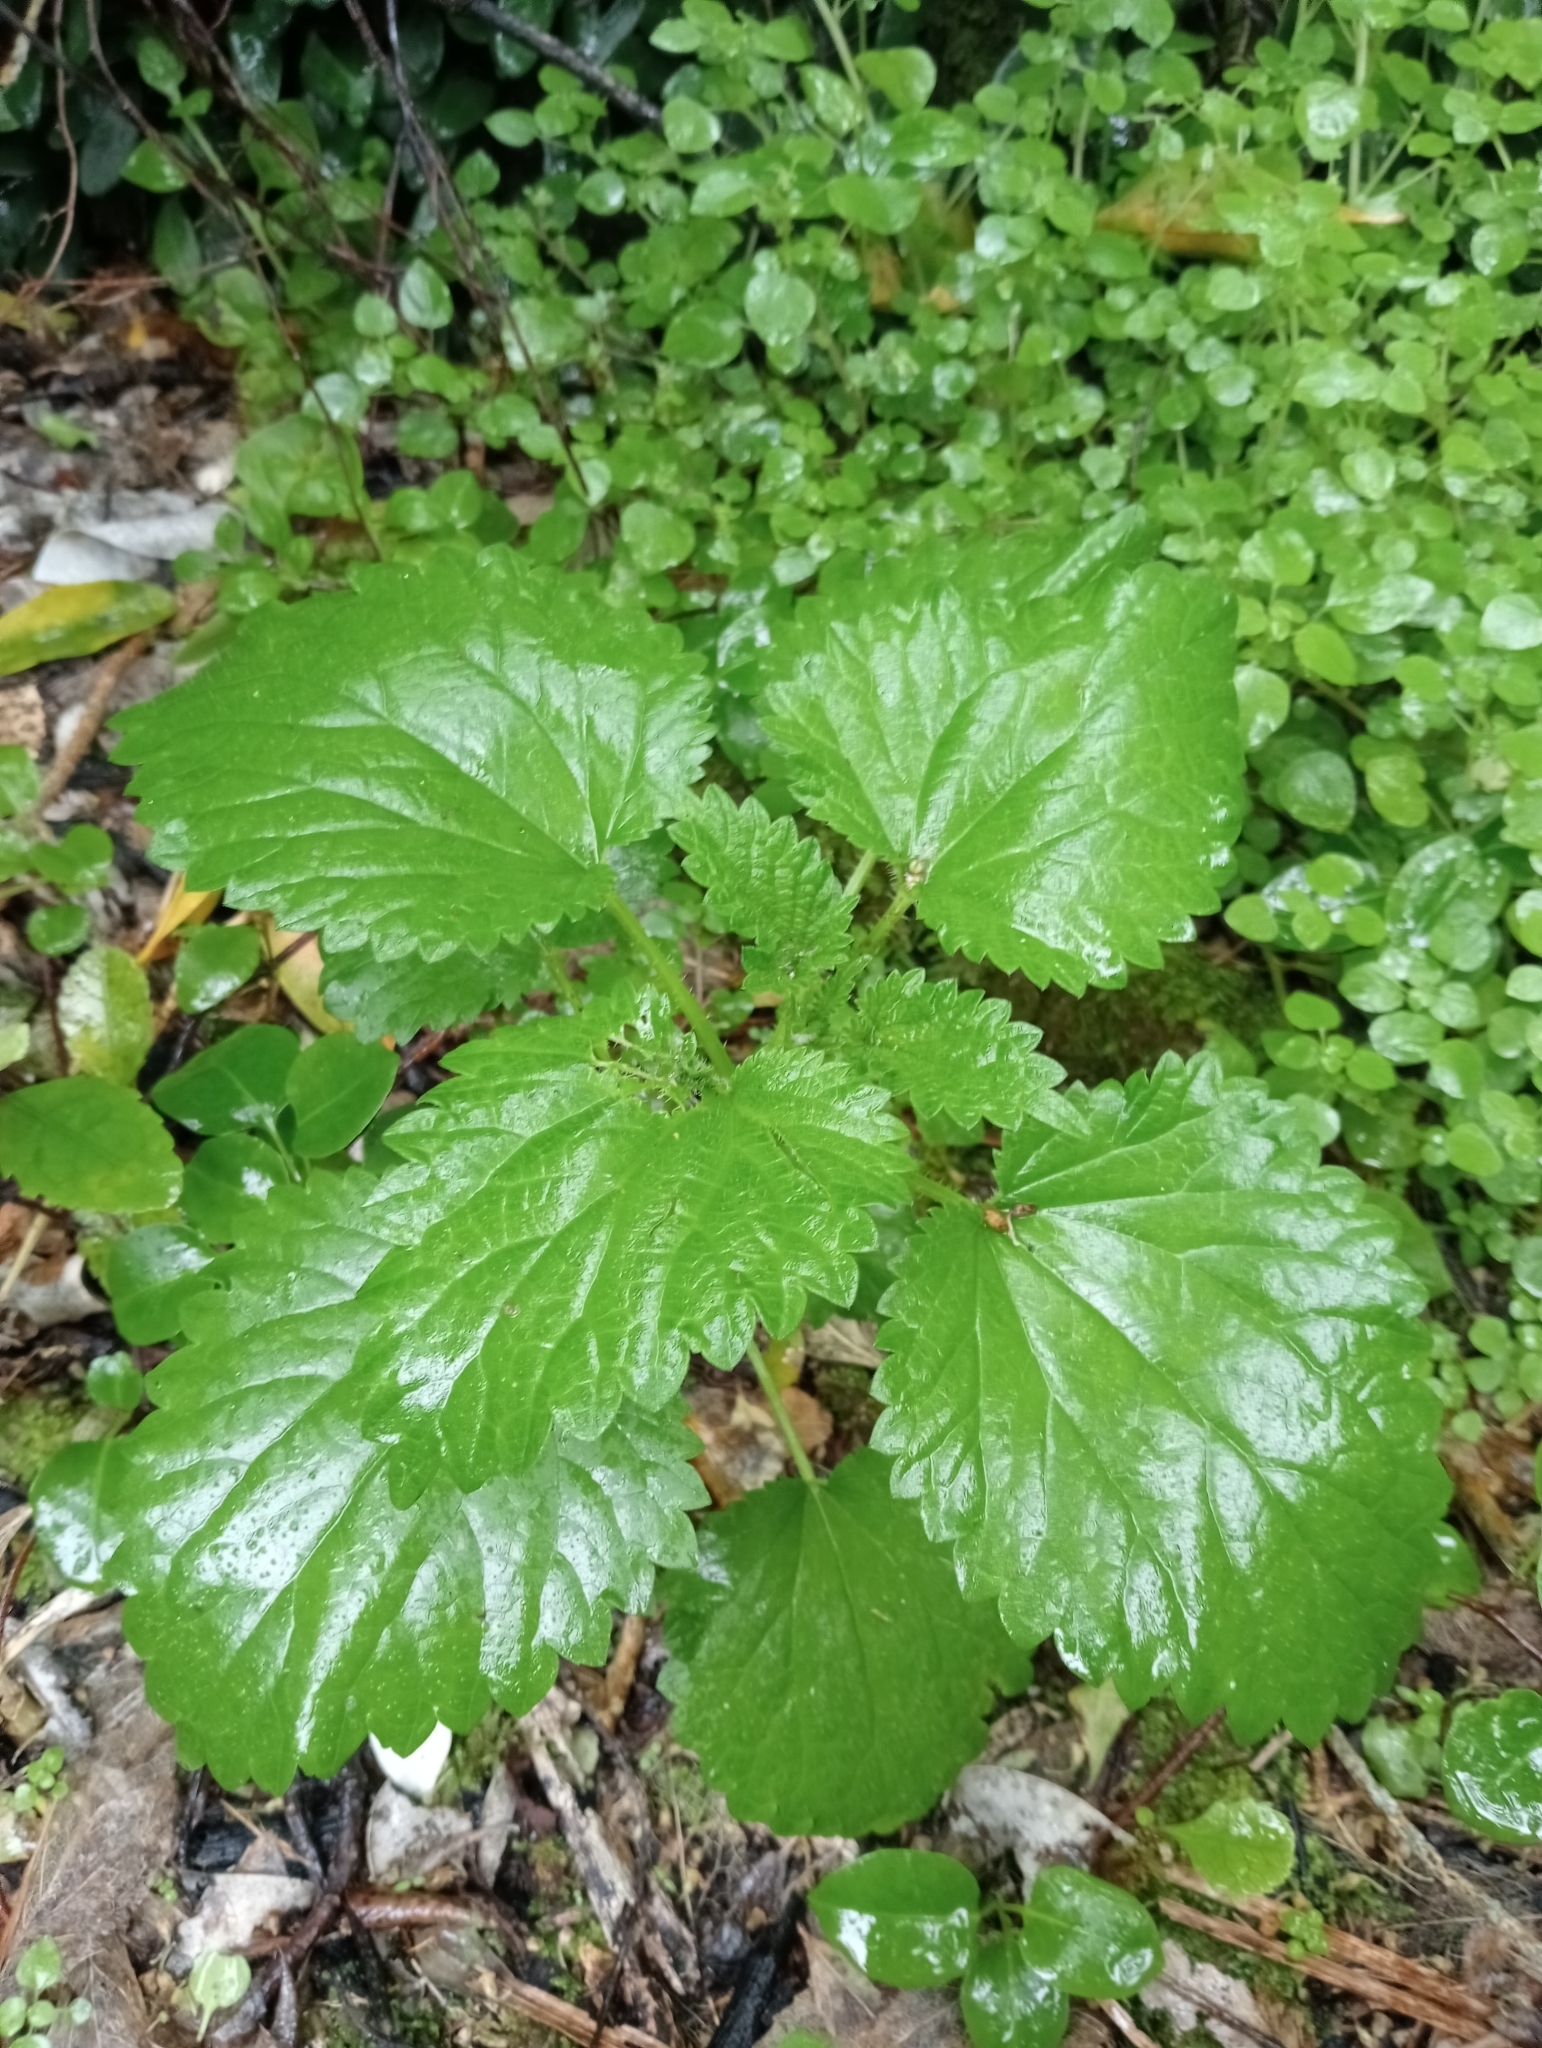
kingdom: Plantae
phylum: Tracheophyta
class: Magnoliopsida
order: Rosales
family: Urticaceae
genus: Urtica
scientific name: Urtica australis
